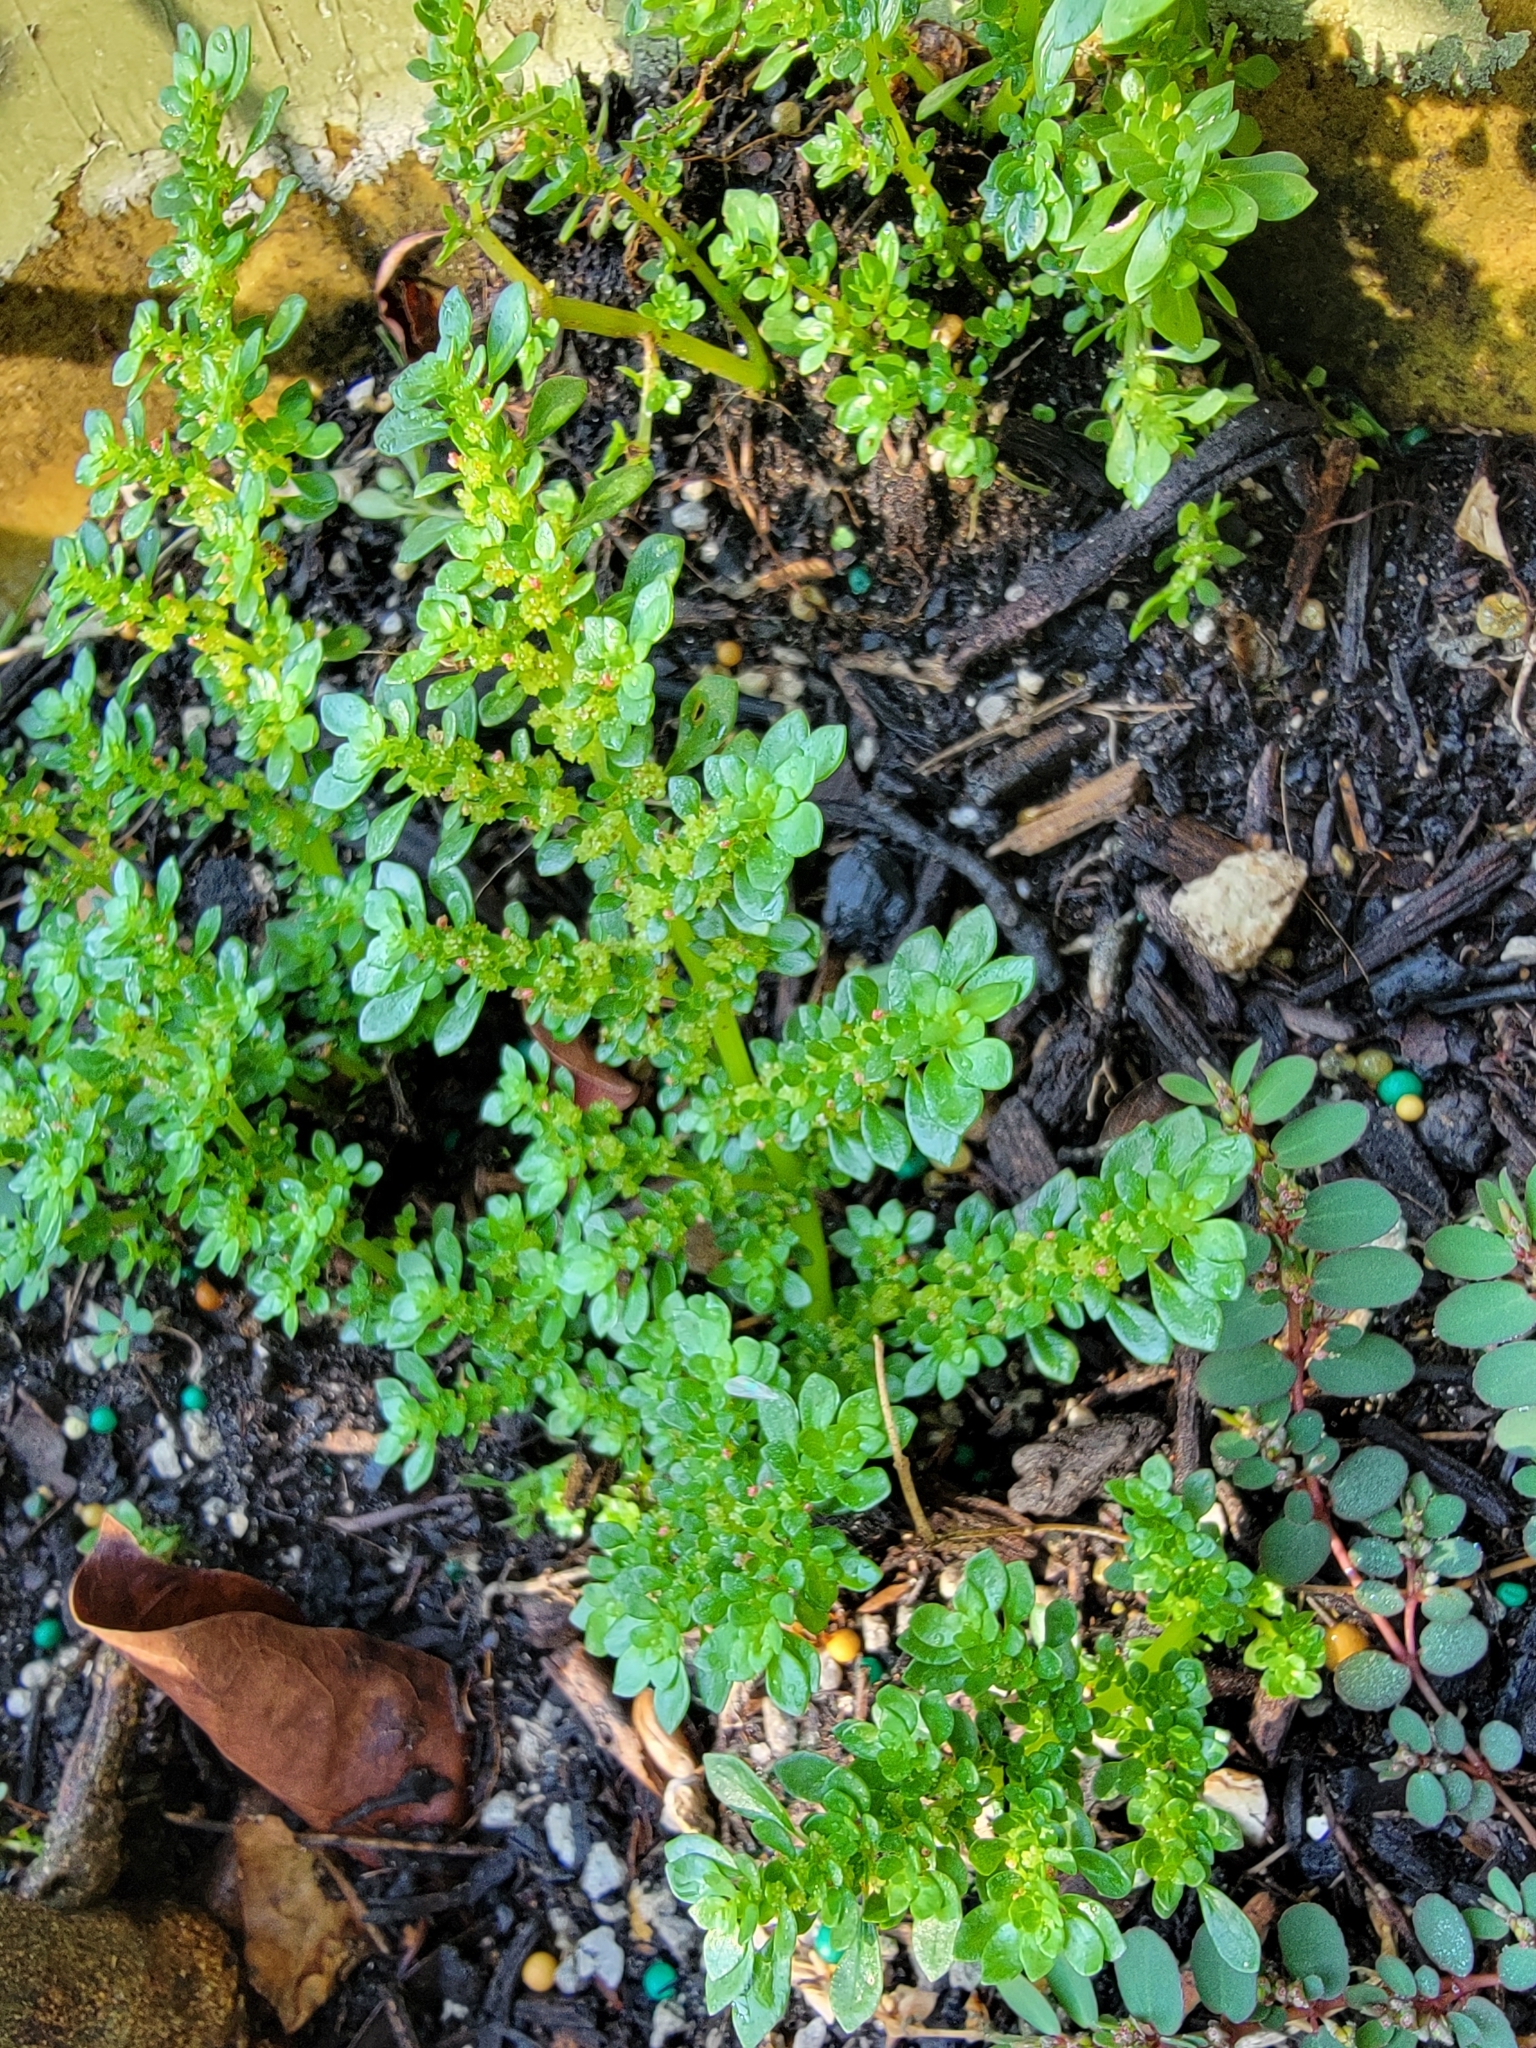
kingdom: Plantae
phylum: Tracheophyta
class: Magnoliopsida
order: Rosales
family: Urticaceae
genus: Pilea
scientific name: Pilea microphylla
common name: Artillery-plant
